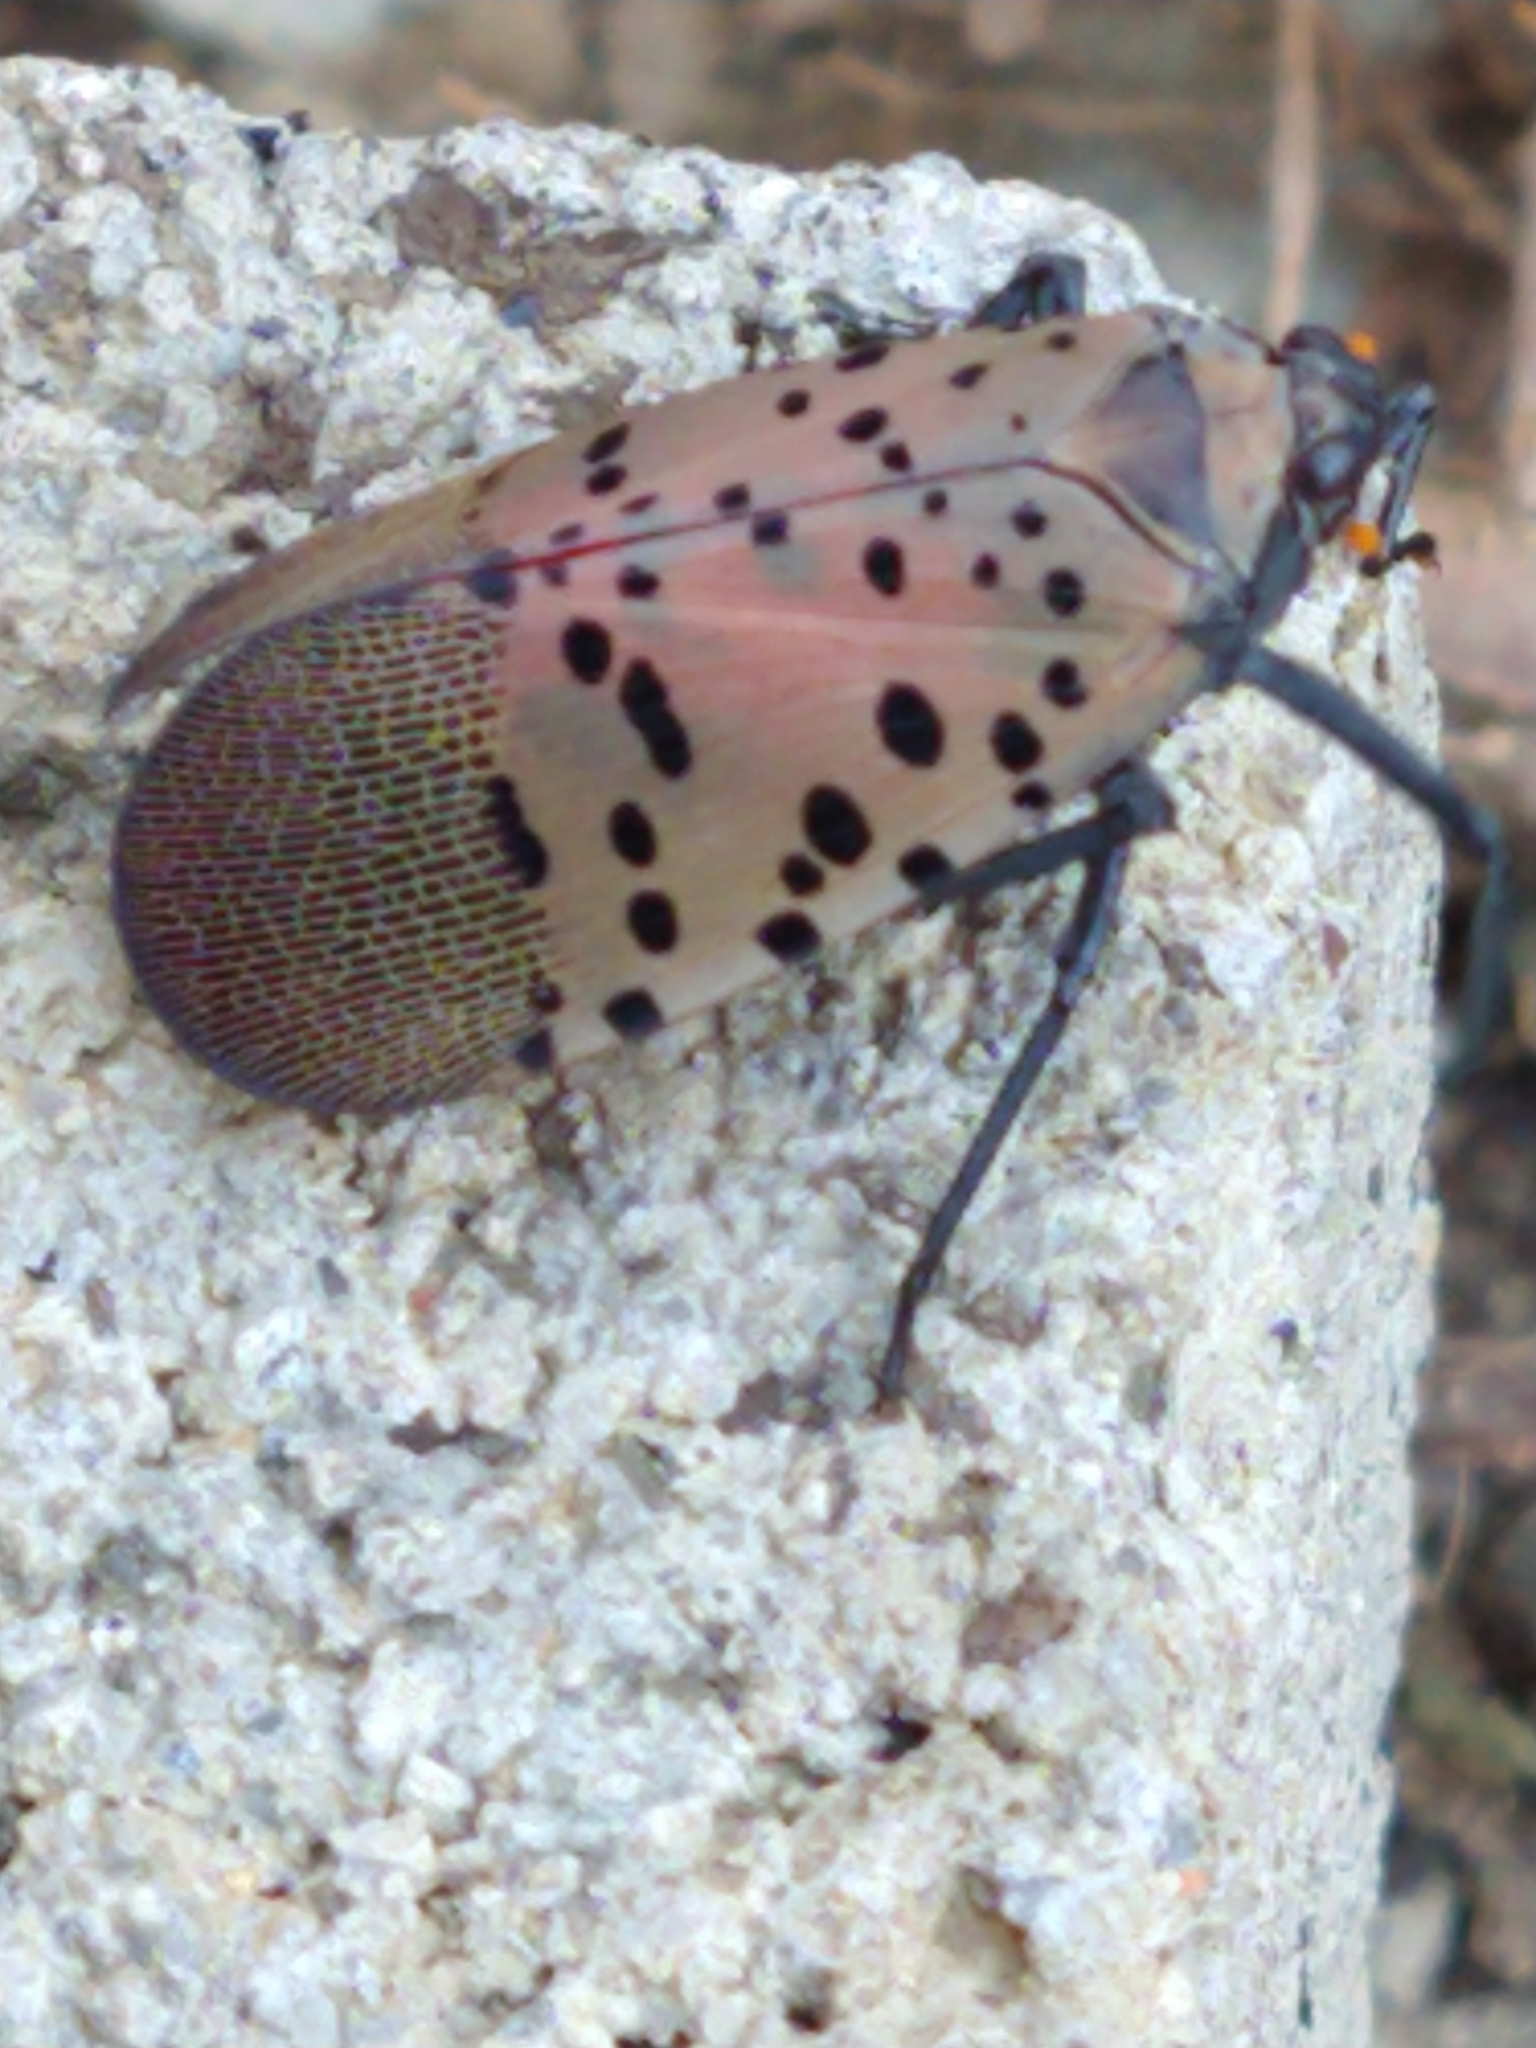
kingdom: Animalia
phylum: Arthropoda
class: Insecta
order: Hemiptera
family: Fulgoridae
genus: Lycorma
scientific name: Lycorma delicatula
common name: Spotted lanternfly
